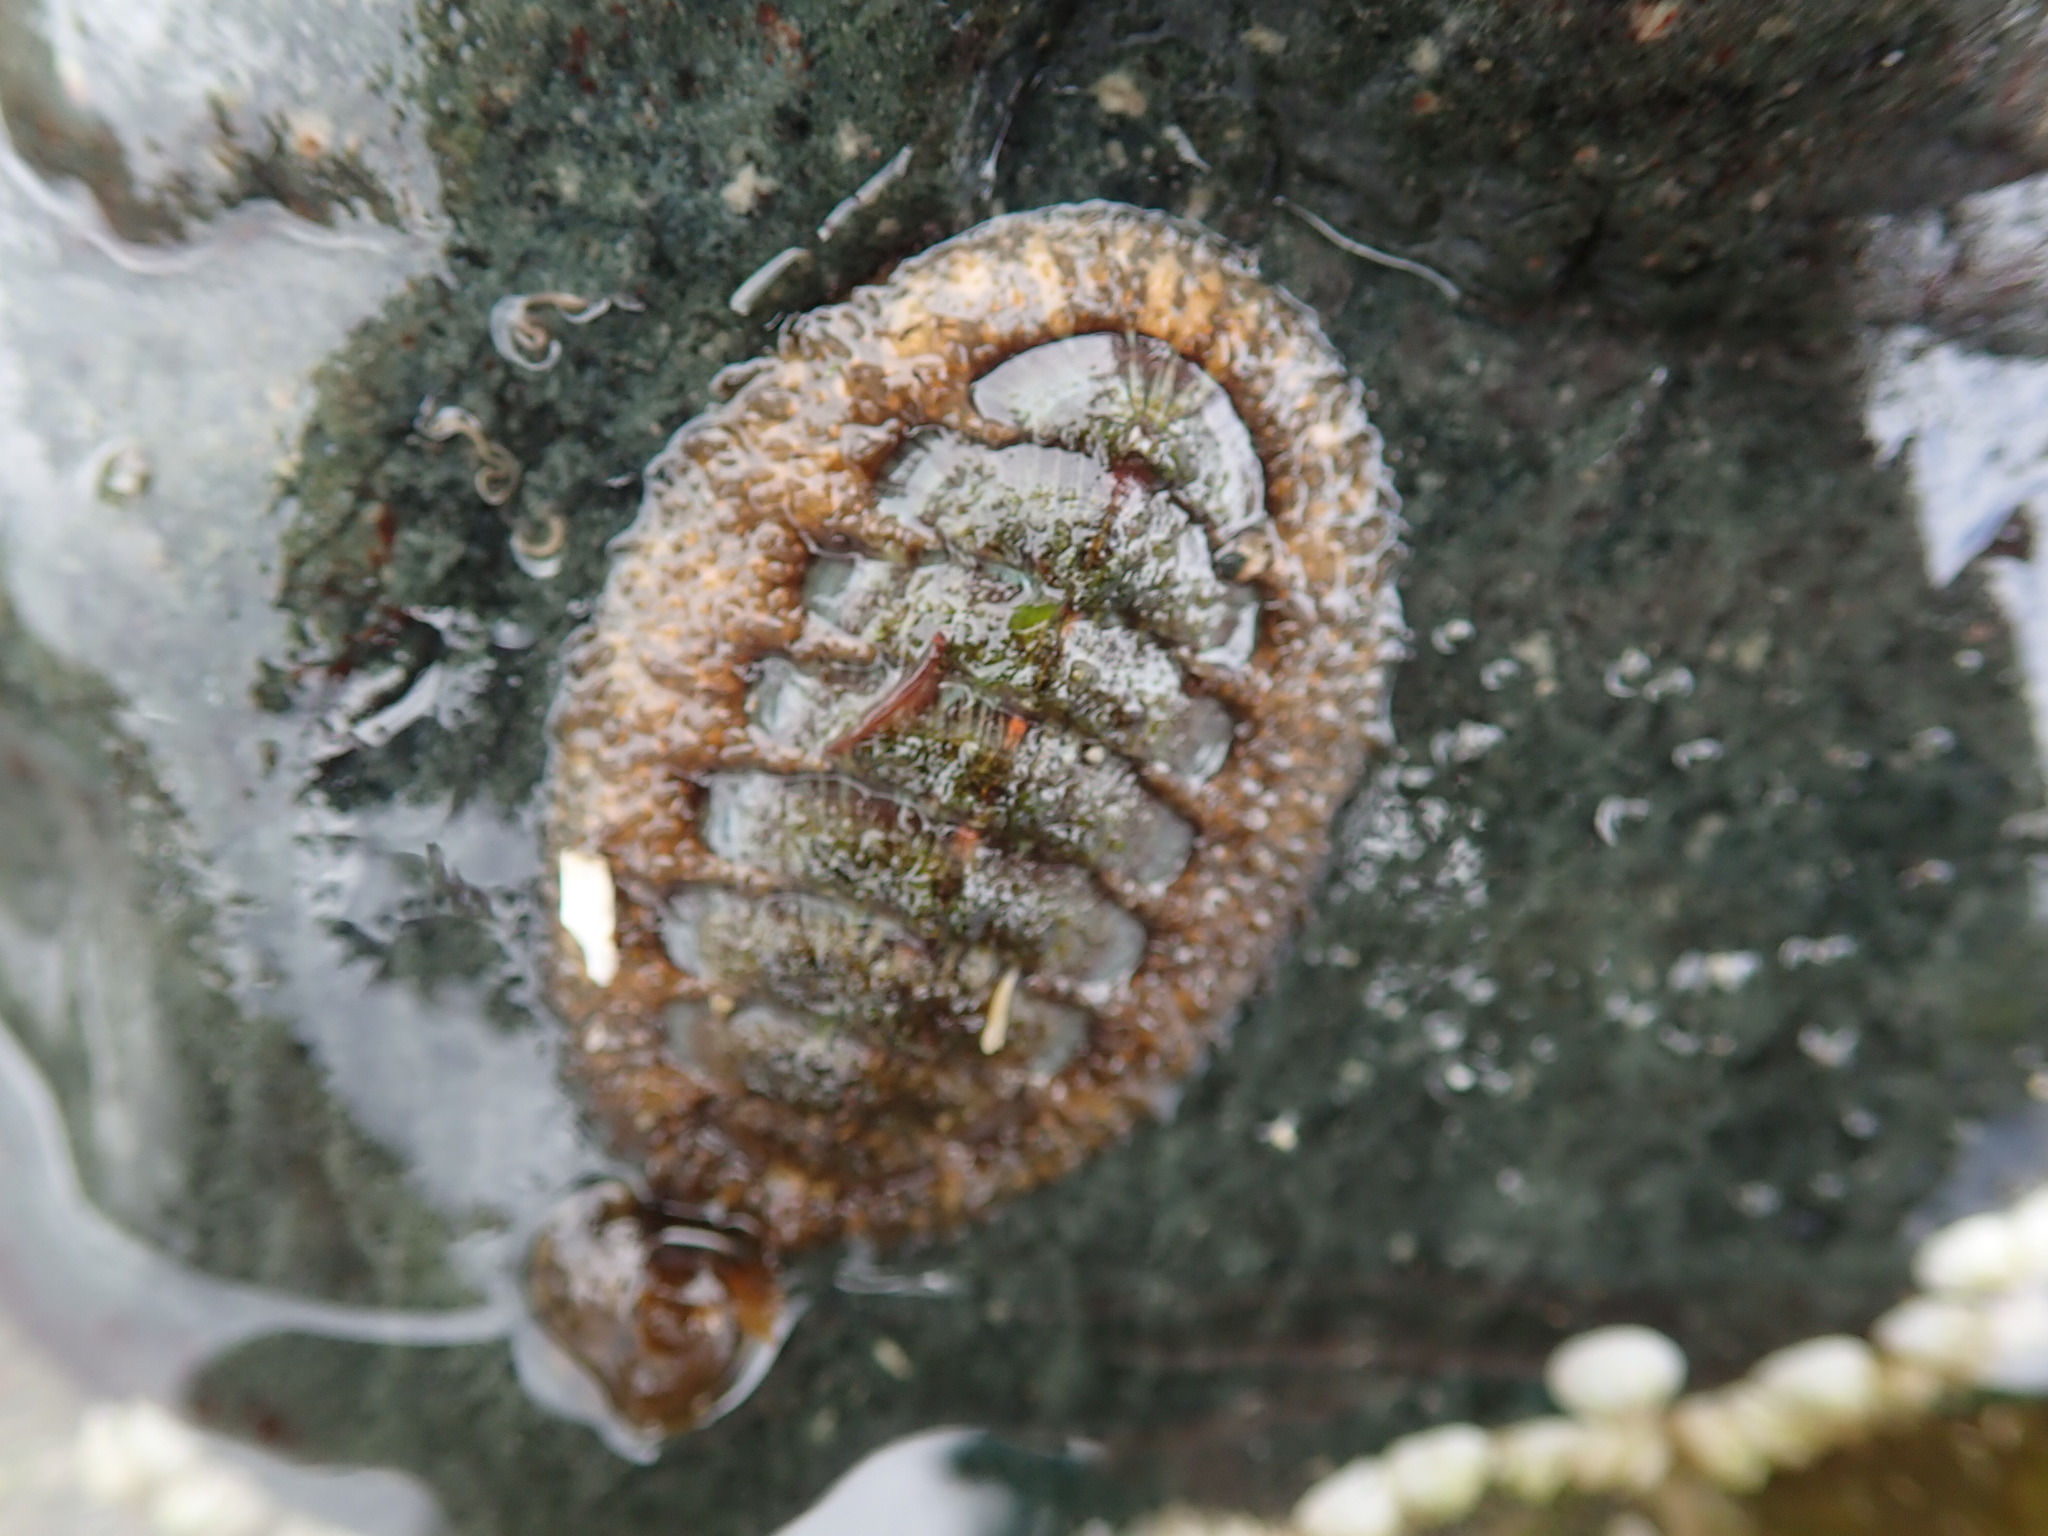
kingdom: Animalia
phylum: Mollusca
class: Polyplacophora
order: Chitonida
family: Mopaliidae
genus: Mopalia
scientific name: Mopalia lignosa
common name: Woody chiton
